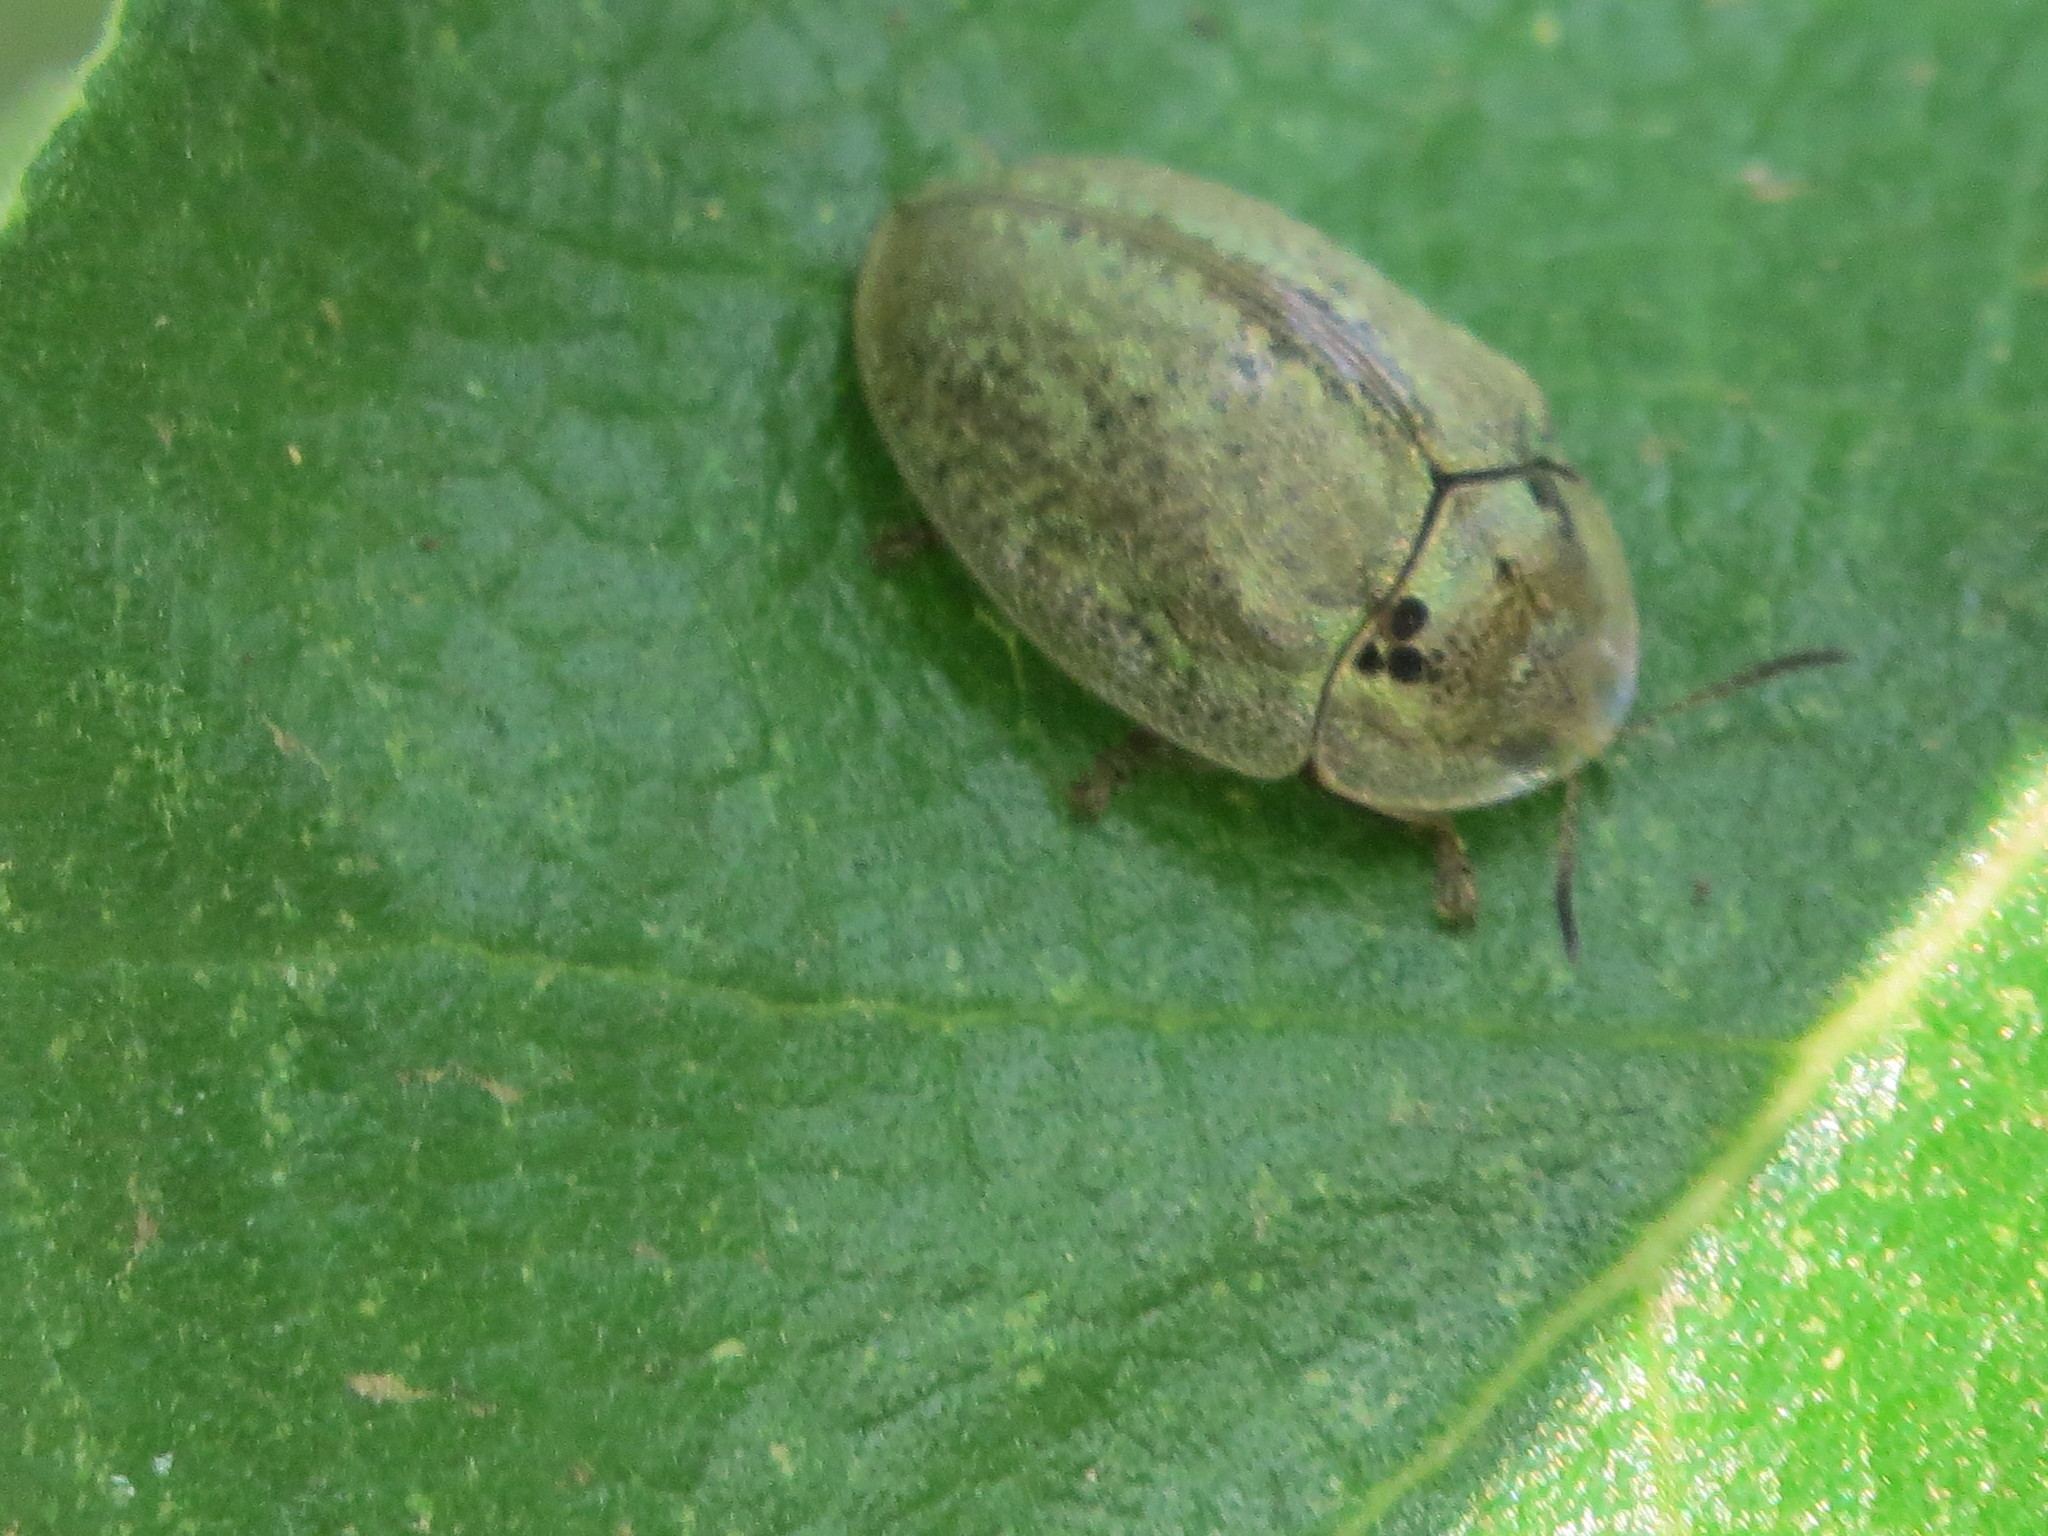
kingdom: Animalia
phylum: Arthropoda
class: Insecta
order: Coleoptera
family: Chrysomelidae
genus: Physonota
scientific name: Physonota alutacea
